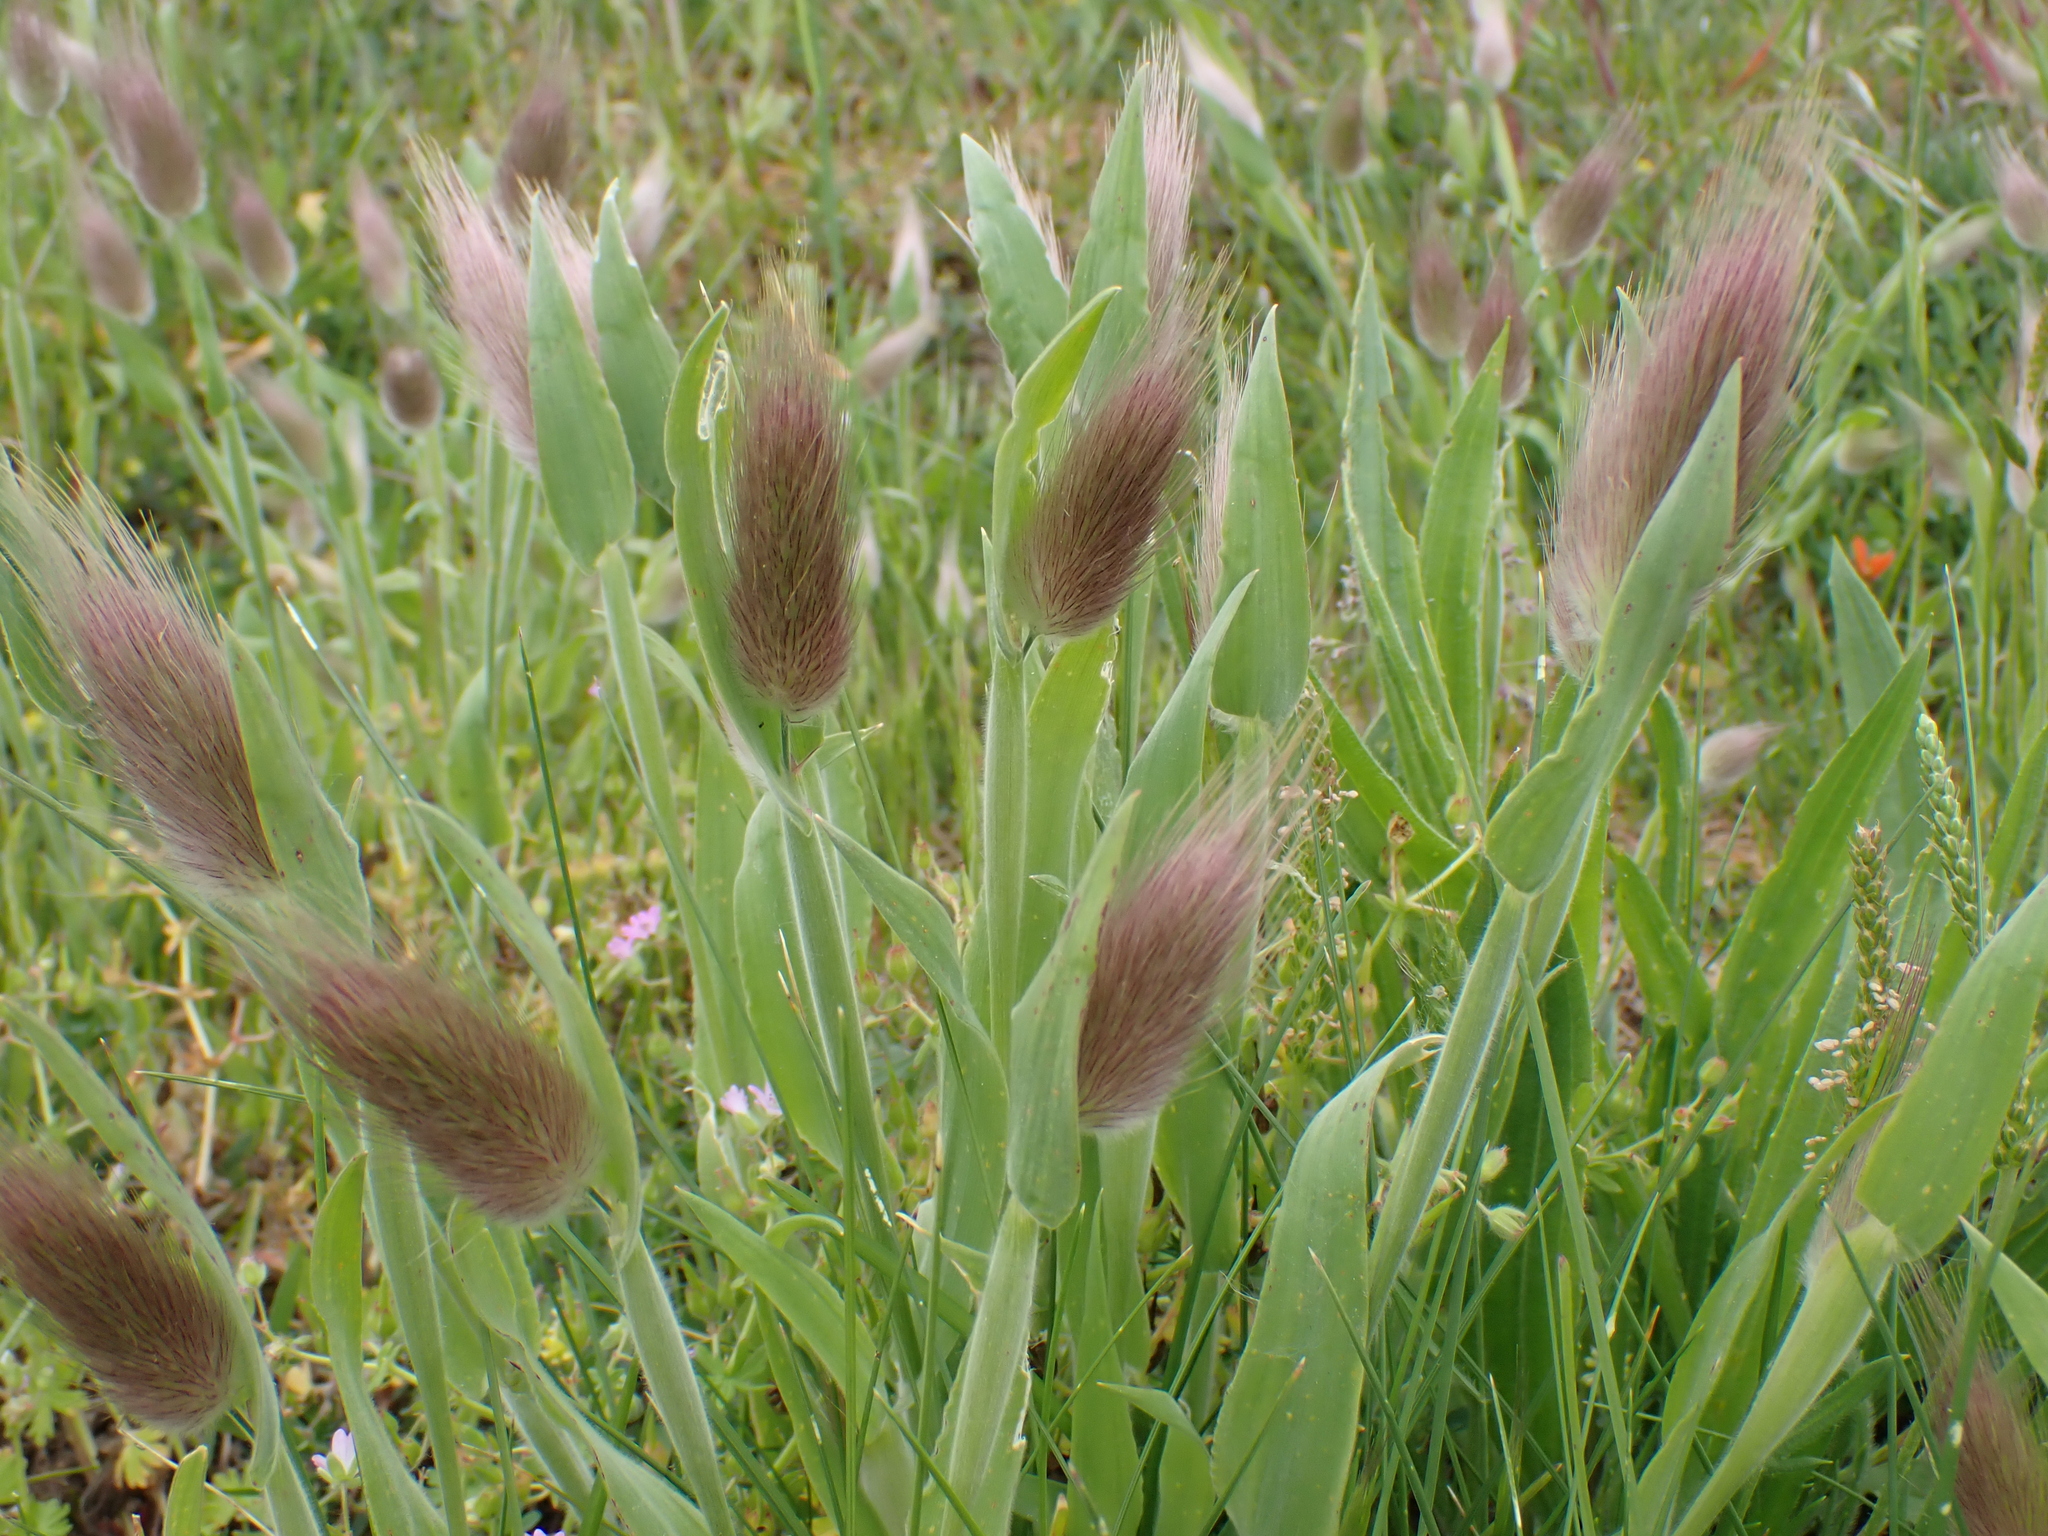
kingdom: Plantae
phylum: Tracheophyta
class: Liliopsida
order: Poales
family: Poaceae
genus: Lagurus
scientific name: Lagurus ovatus
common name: Hare's-tail
